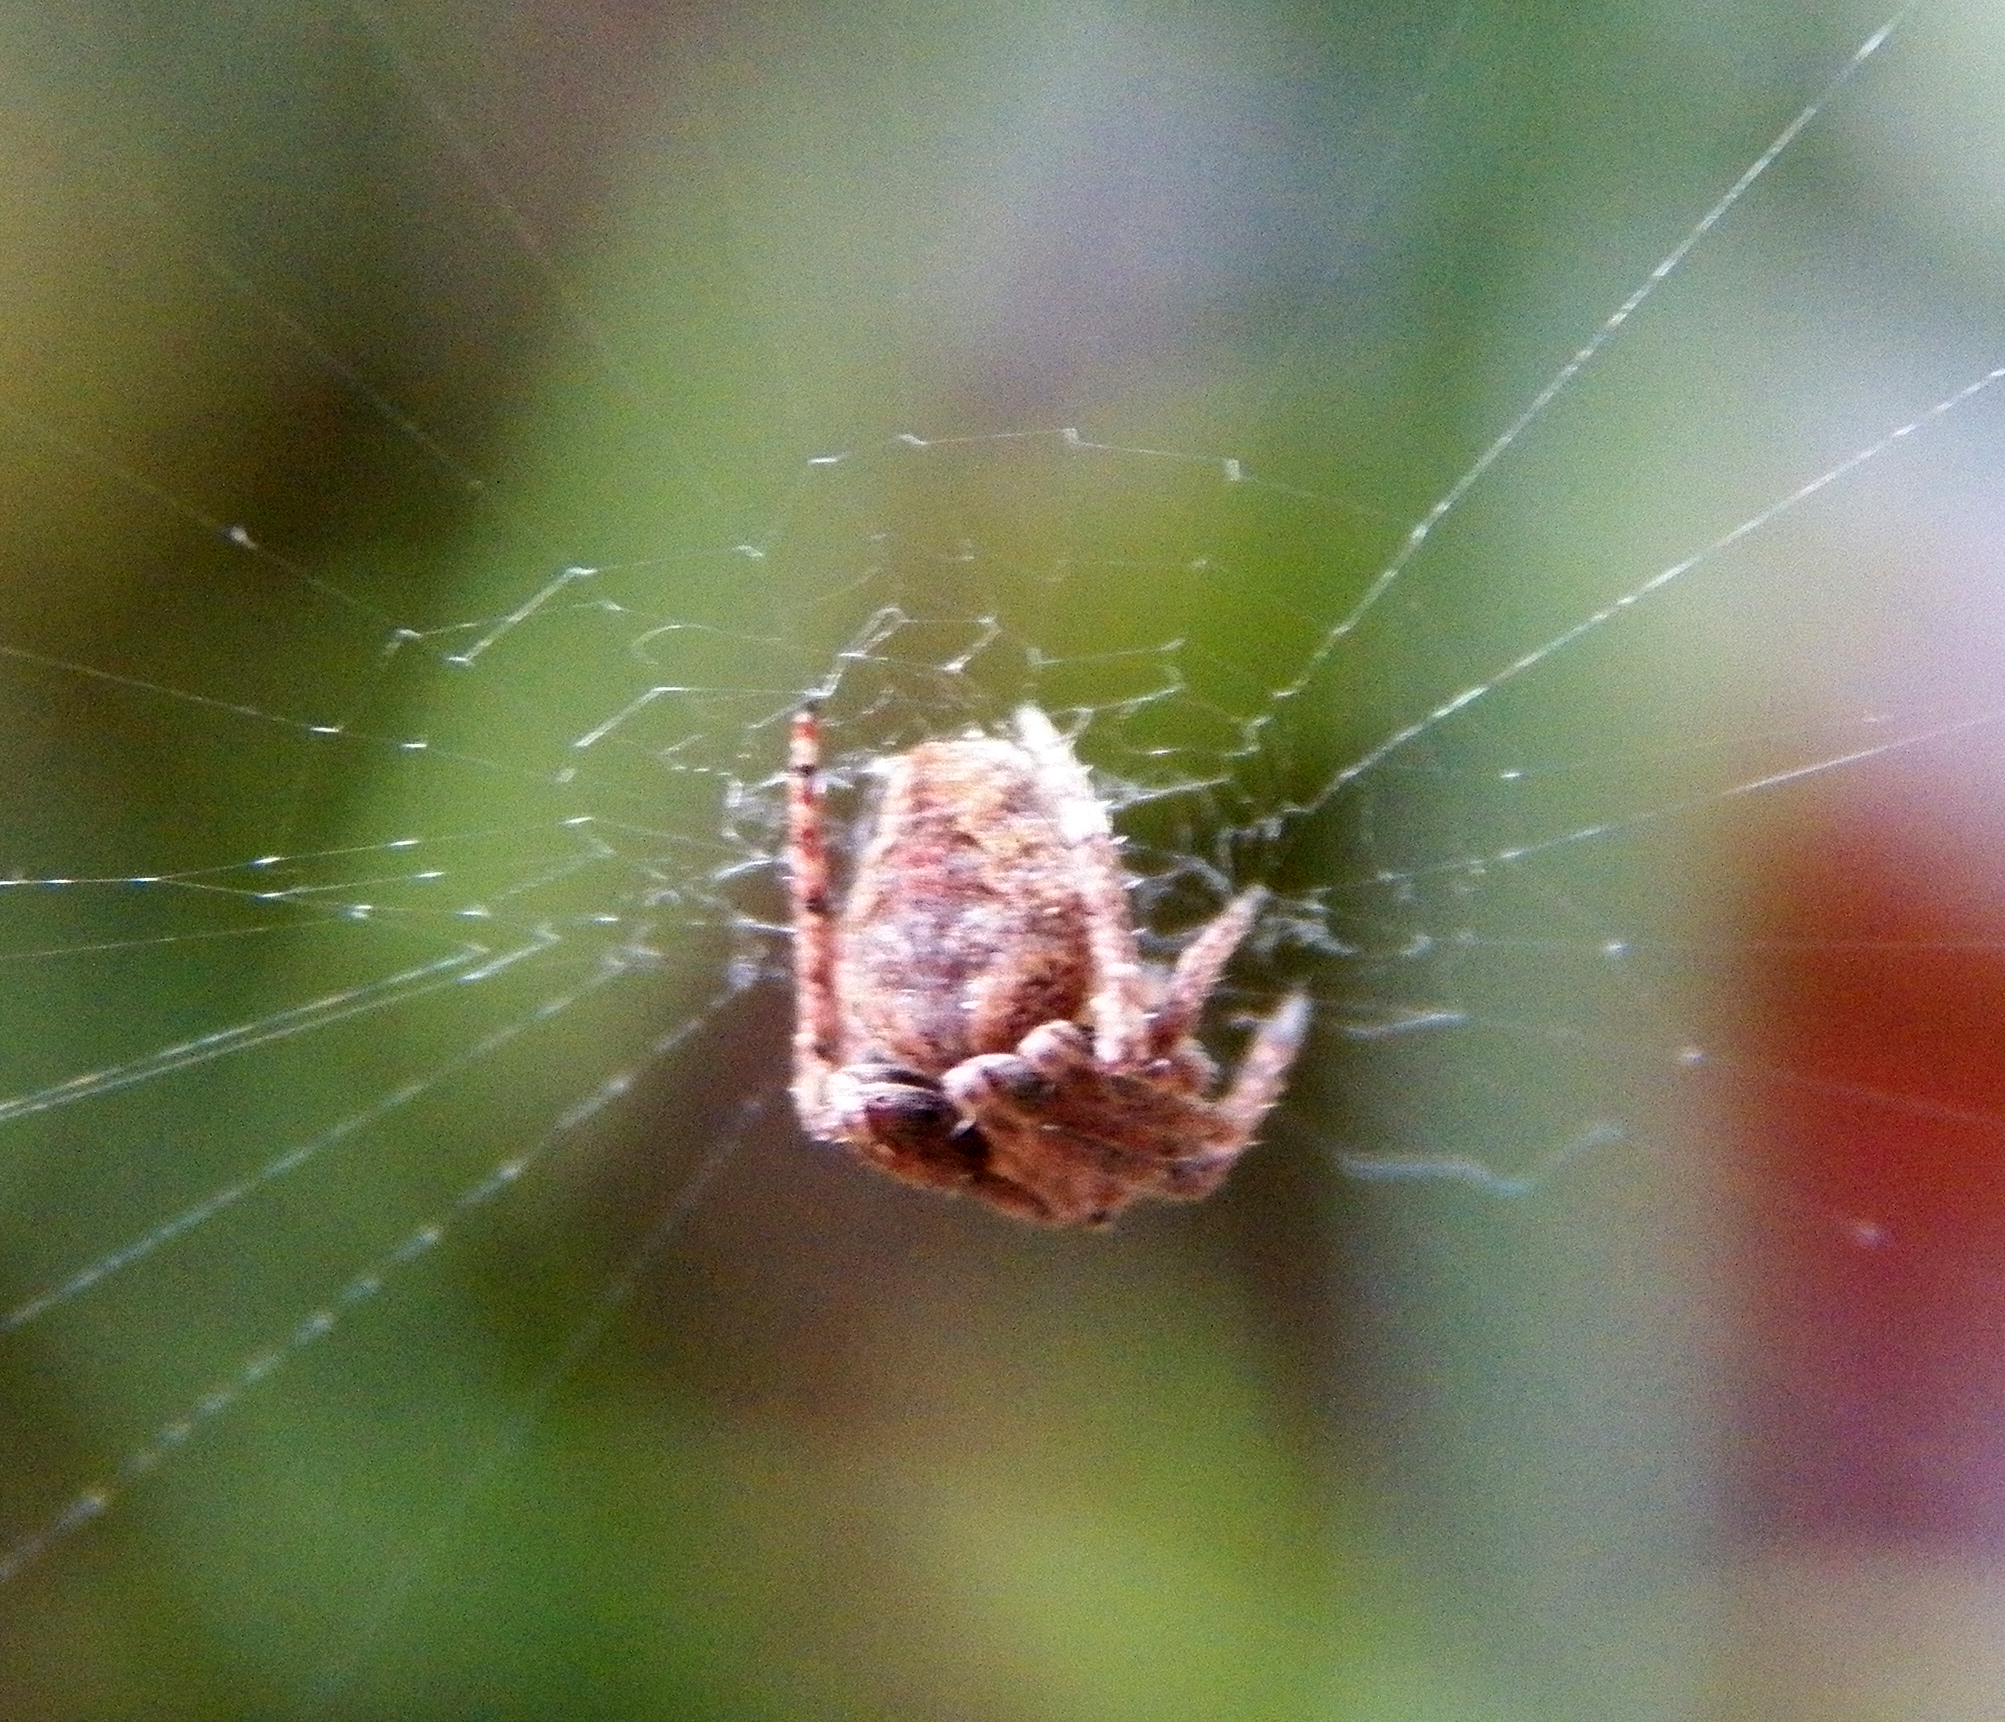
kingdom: Animalia
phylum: Arthropoda
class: Arachnida
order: Araneae
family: Araneidae
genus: Neoscona
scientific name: Neoscona crucifera
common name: Spotted orbweaver
